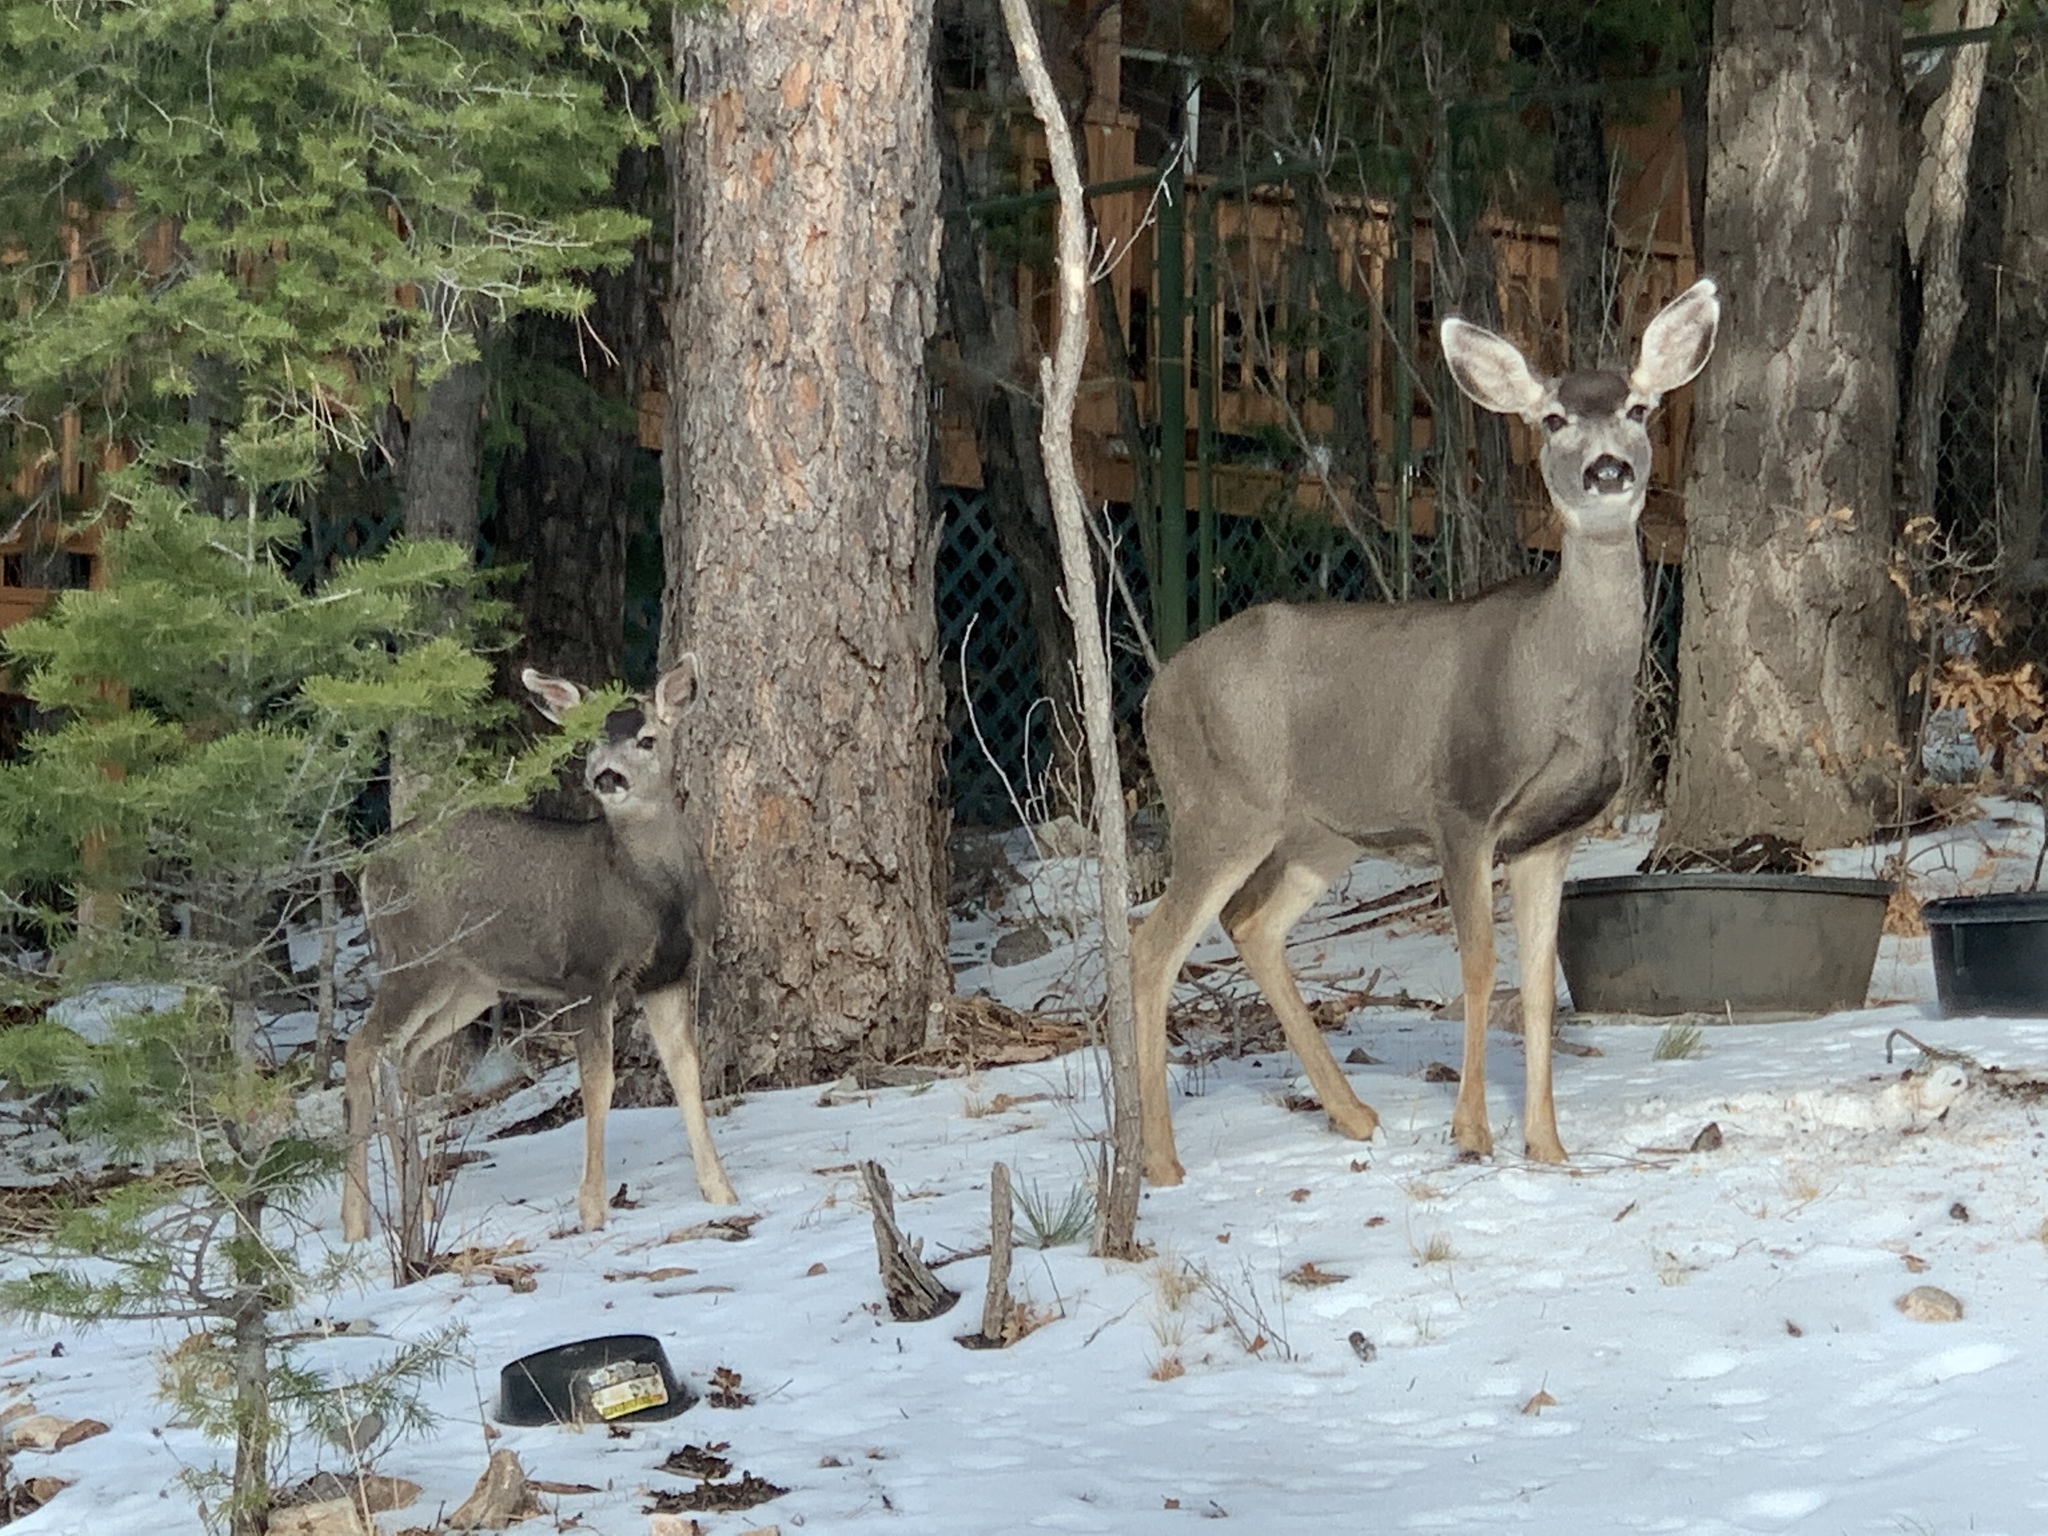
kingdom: Animalia
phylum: Chordata
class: Mammalia
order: Artiodactyla
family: Cervidae
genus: Odocoileus
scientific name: Odocoileus hemionus
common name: Mule deer
